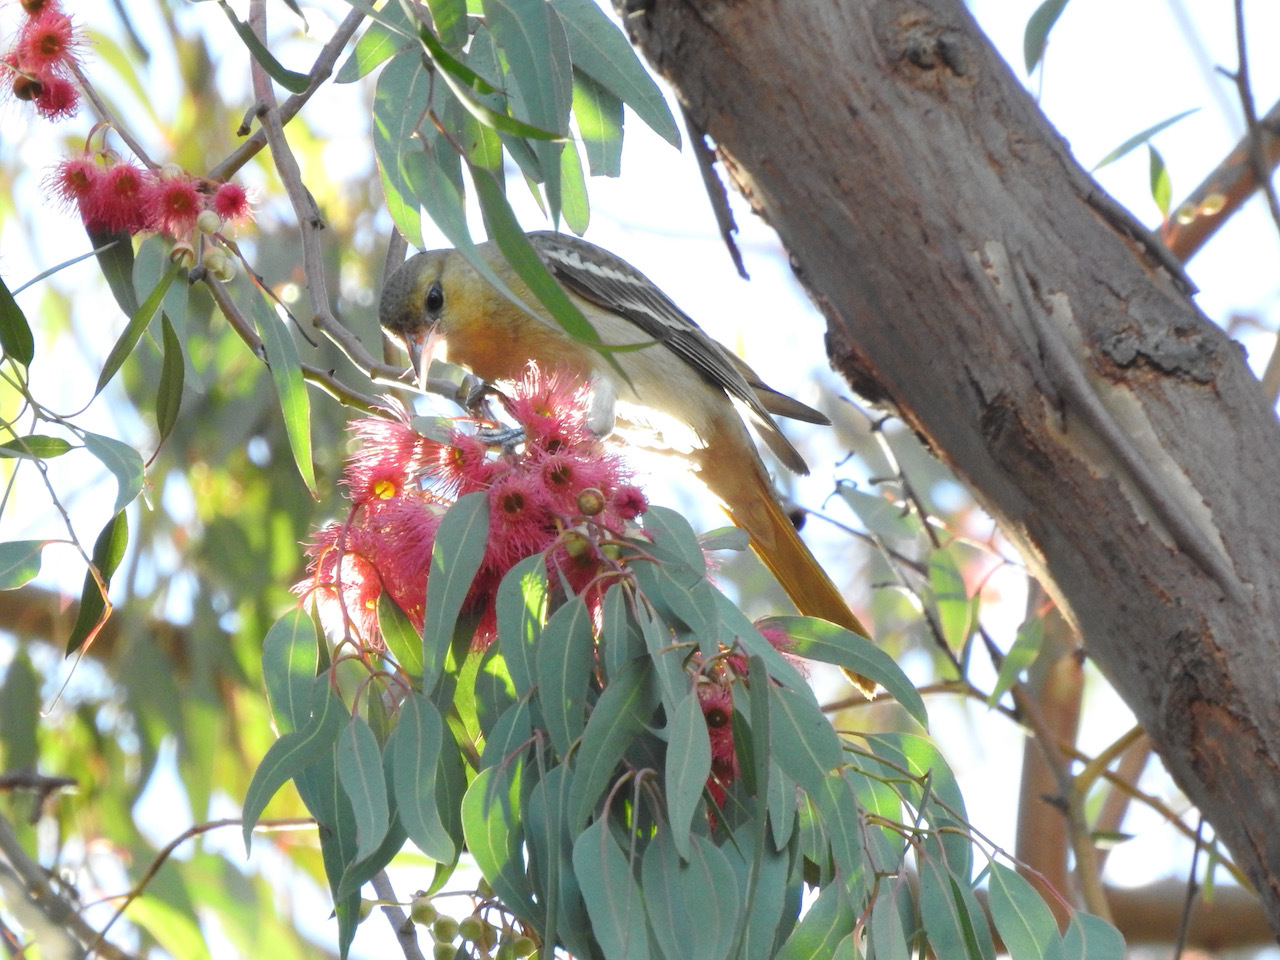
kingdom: Animalia
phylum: Chordata
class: Aves
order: Passeriformes
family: Icteridae
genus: Icterus
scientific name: Icterus bullockii
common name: Bullock's oriole
